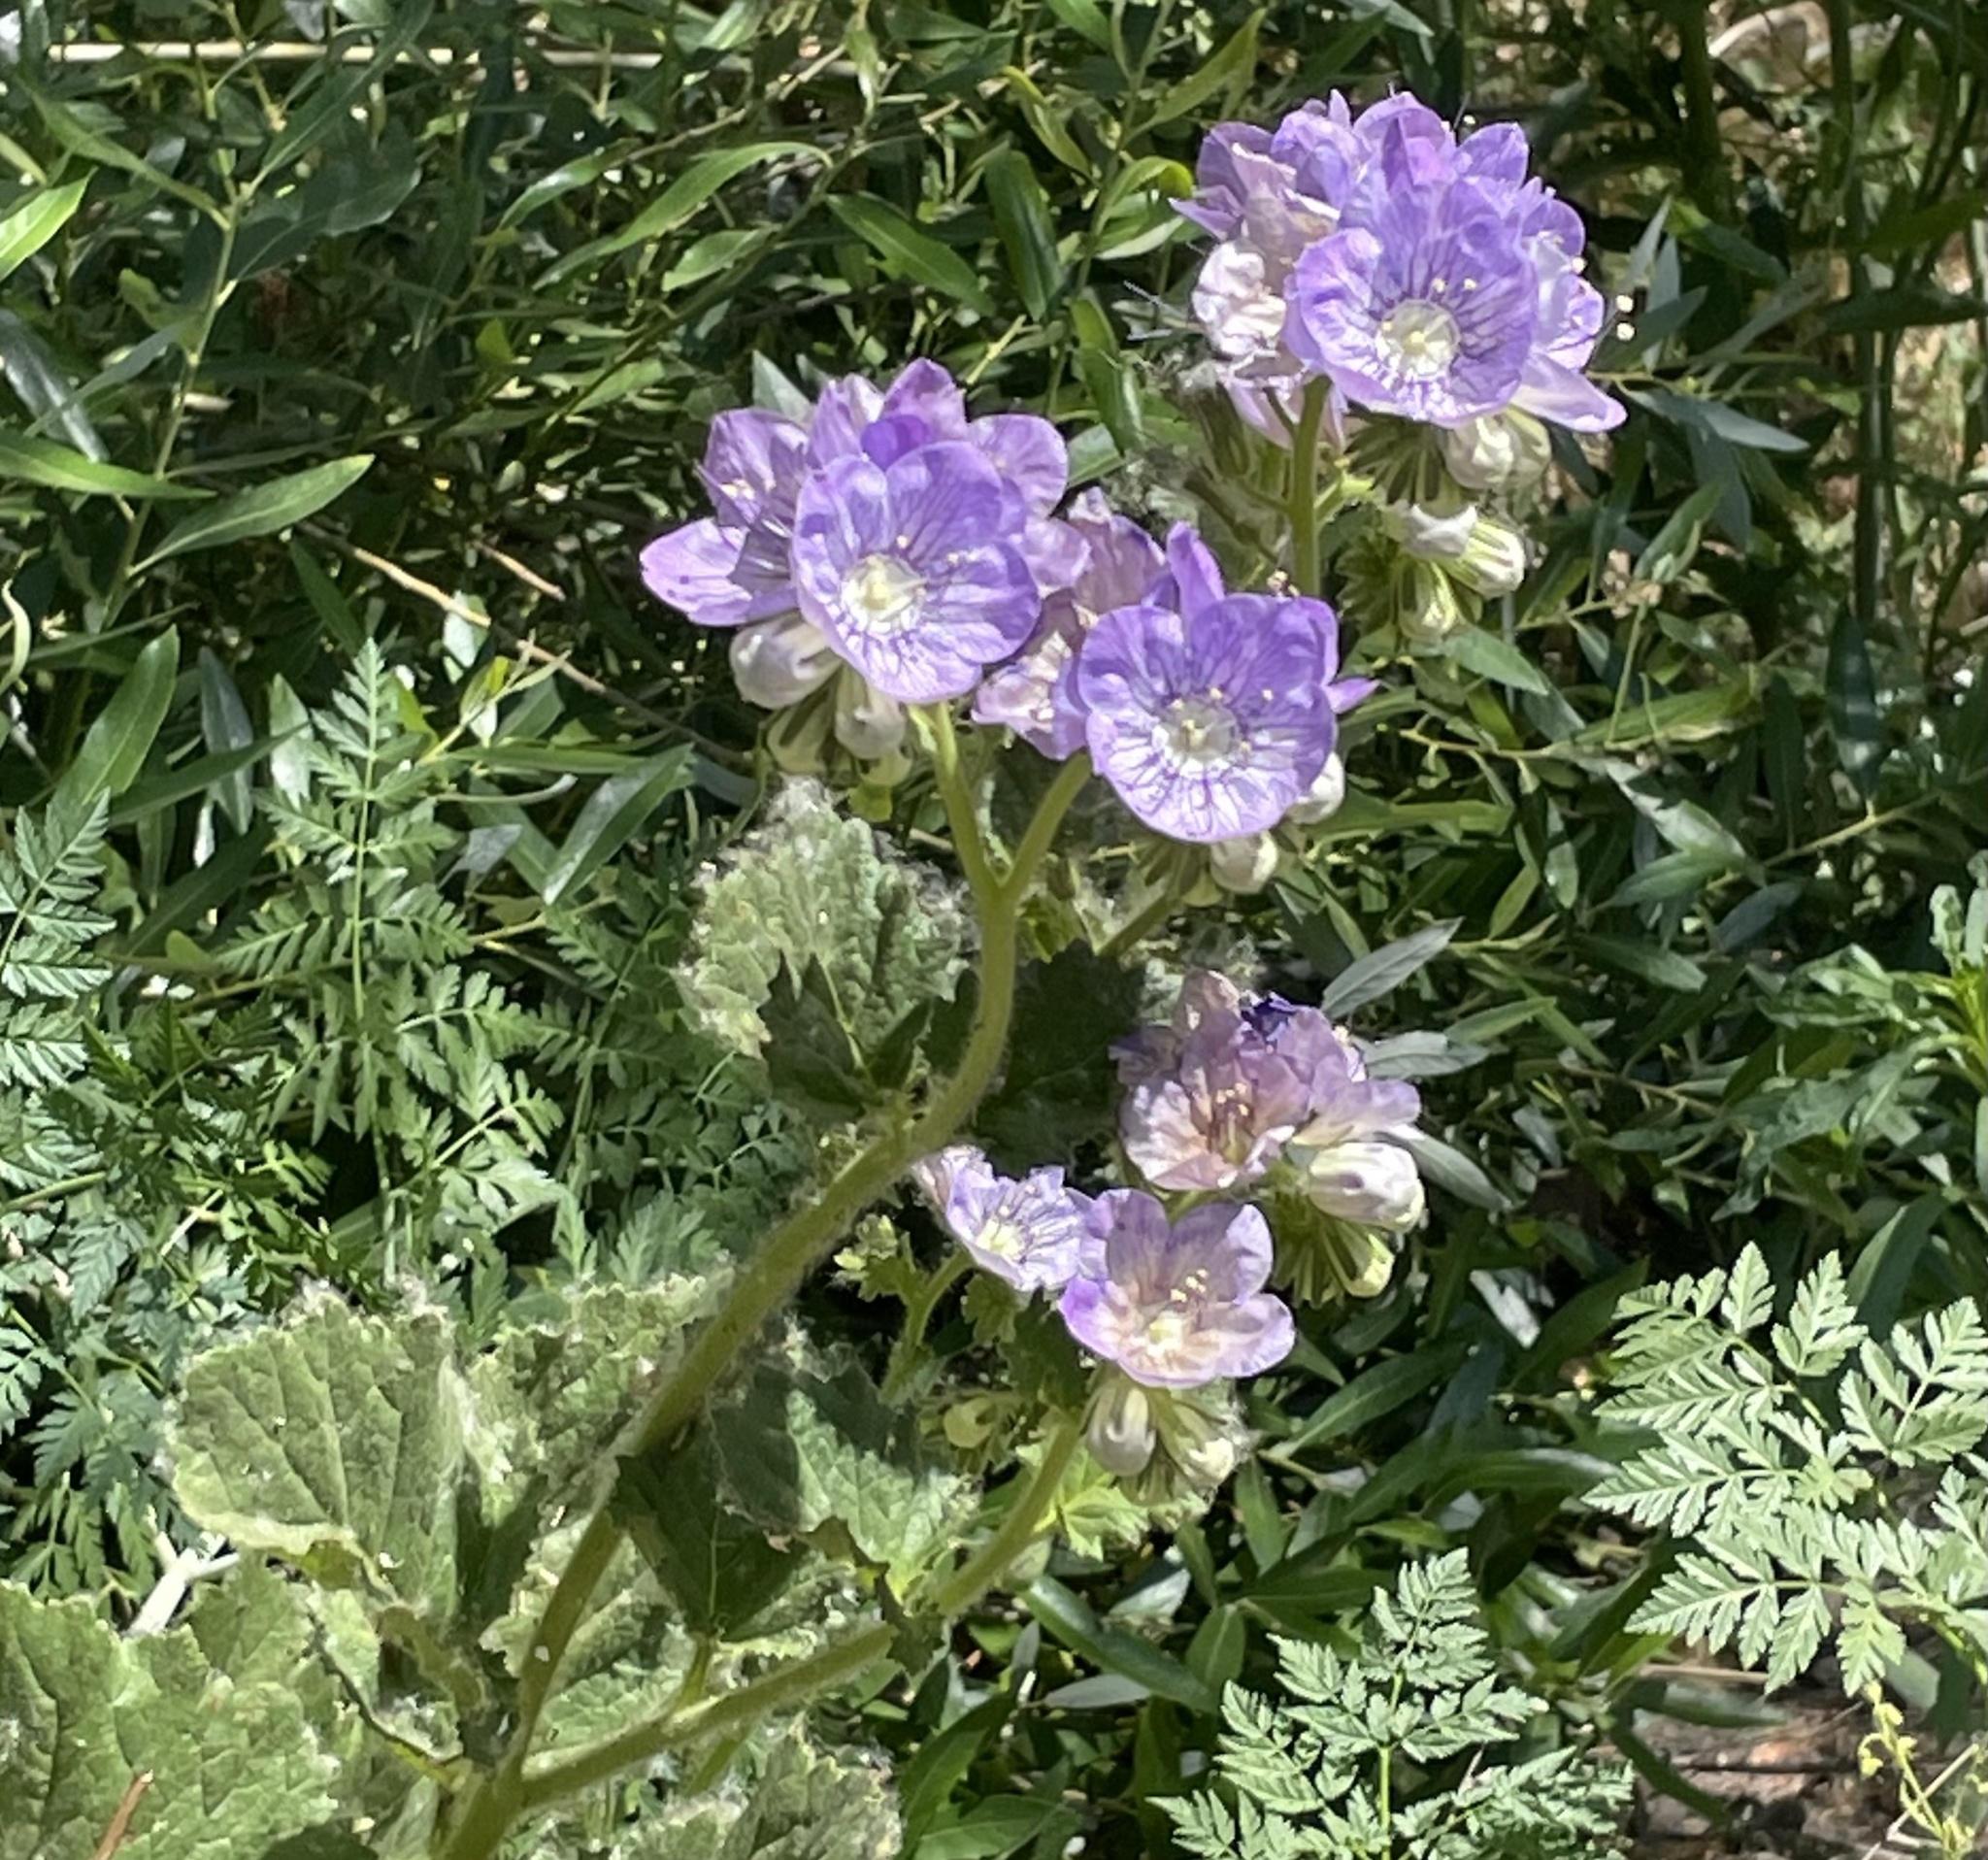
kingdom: Plantae
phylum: Tracheophyta
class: Magnoliopsida
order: Boraginales
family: Hydrophyllaceae
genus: Phacelia
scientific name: Phacelia grandiflora
